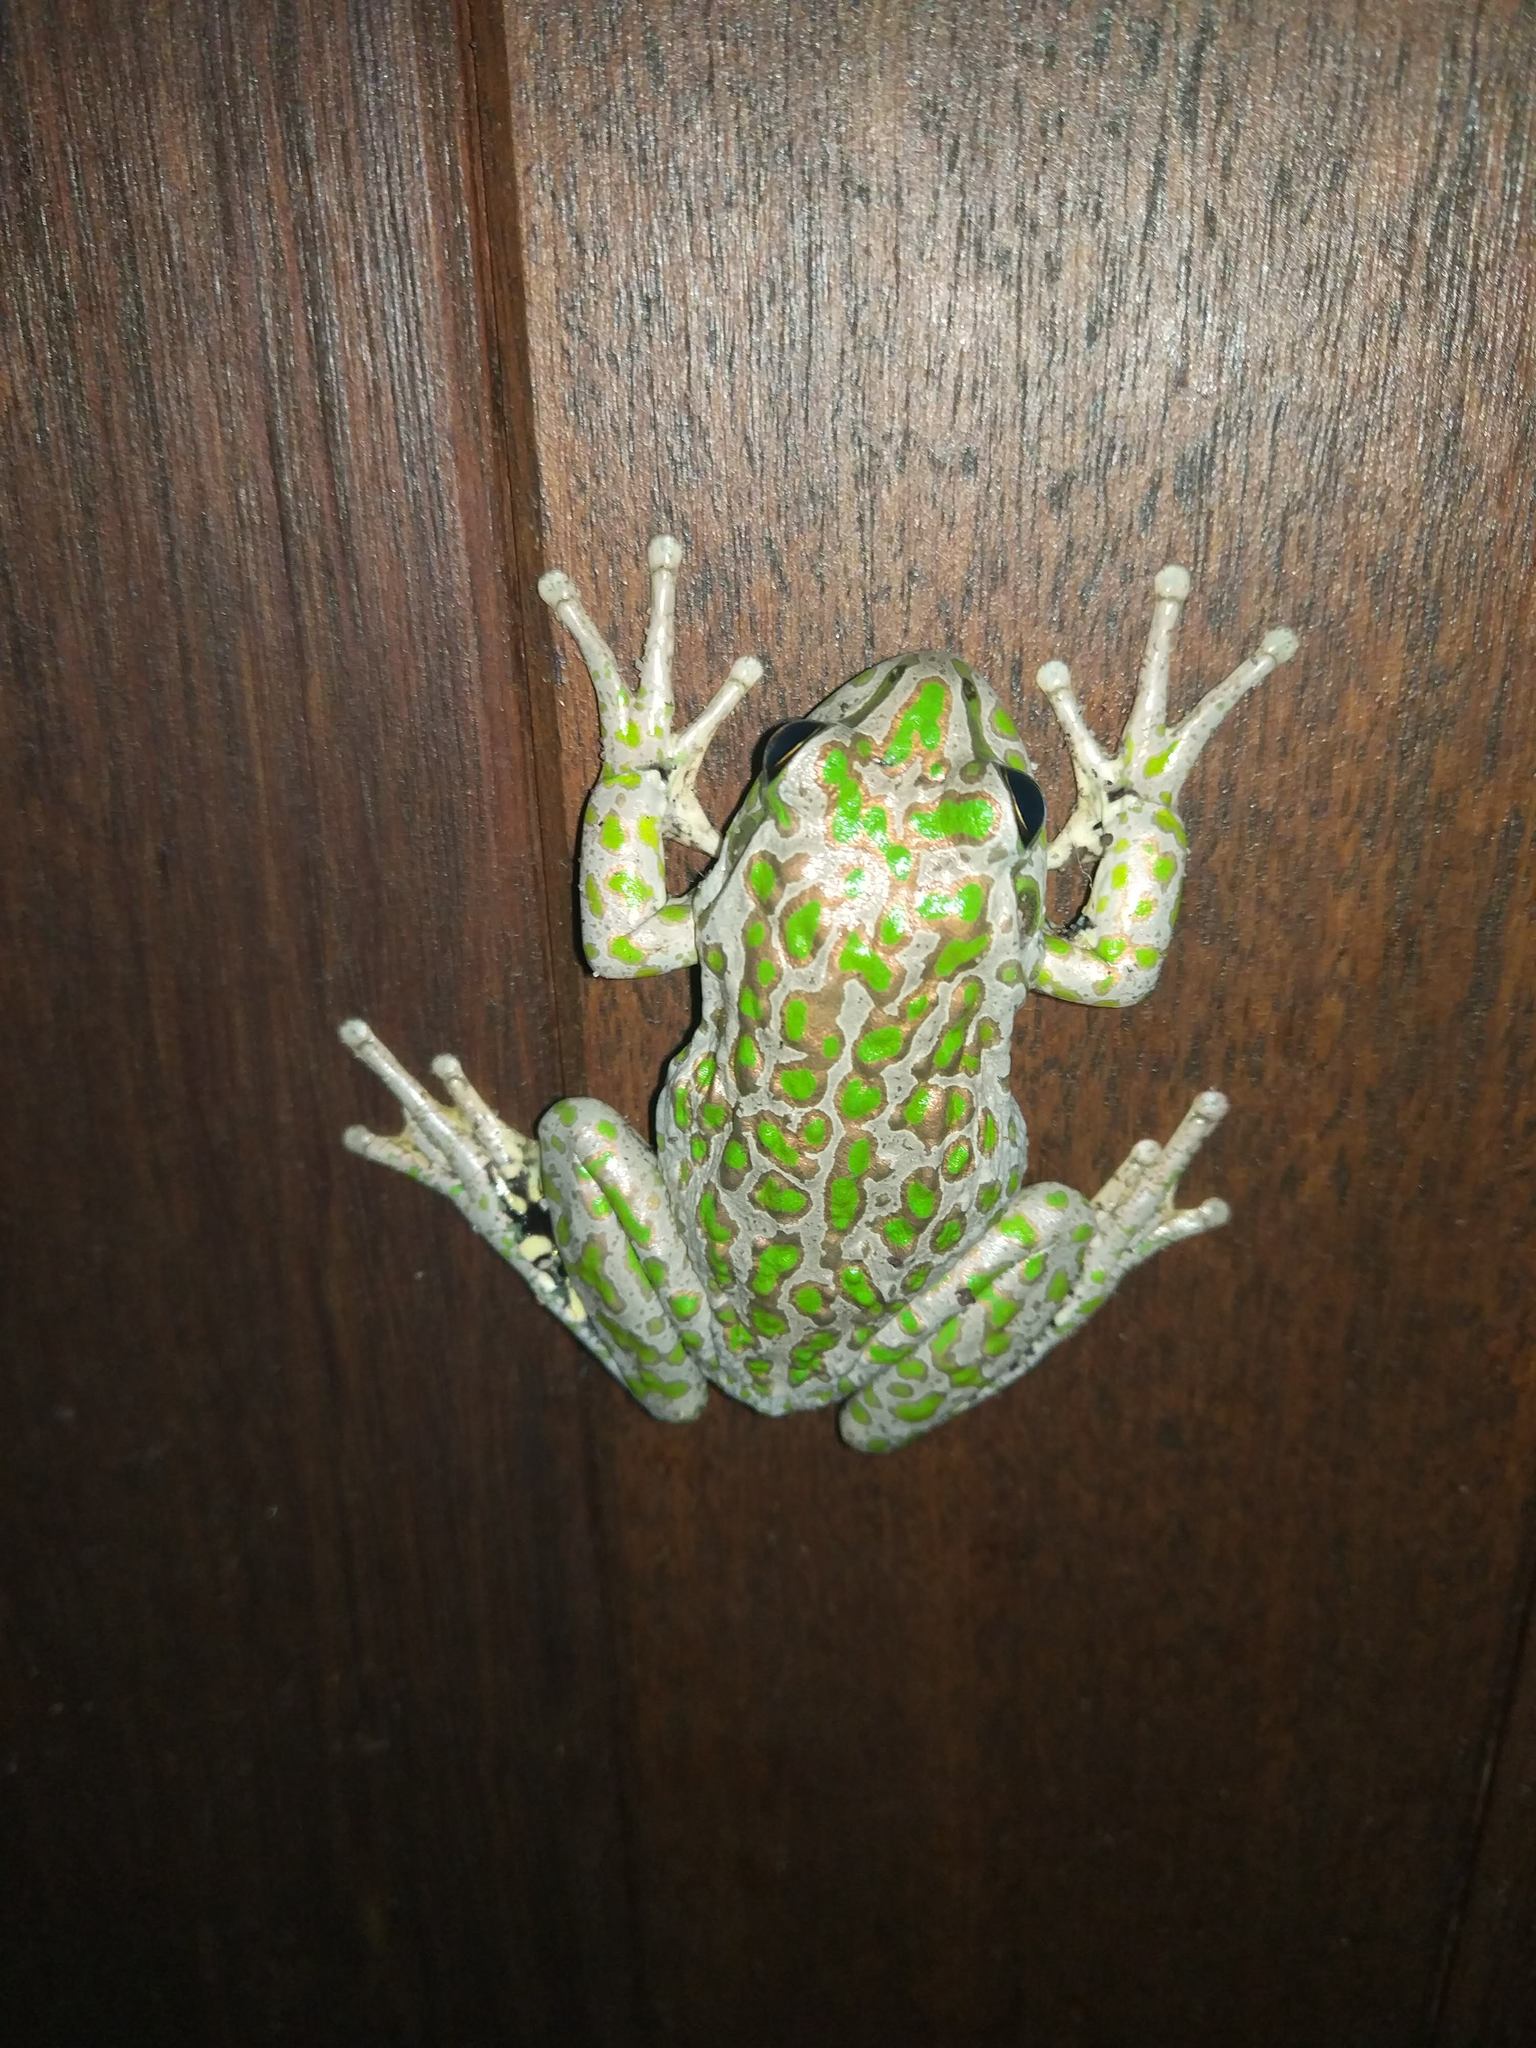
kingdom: Animalia
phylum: Chordata
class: Amphibia
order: Anura
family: Pelodryadidae
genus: Ranoidea
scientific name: Ranoidea cyclorhynchus
